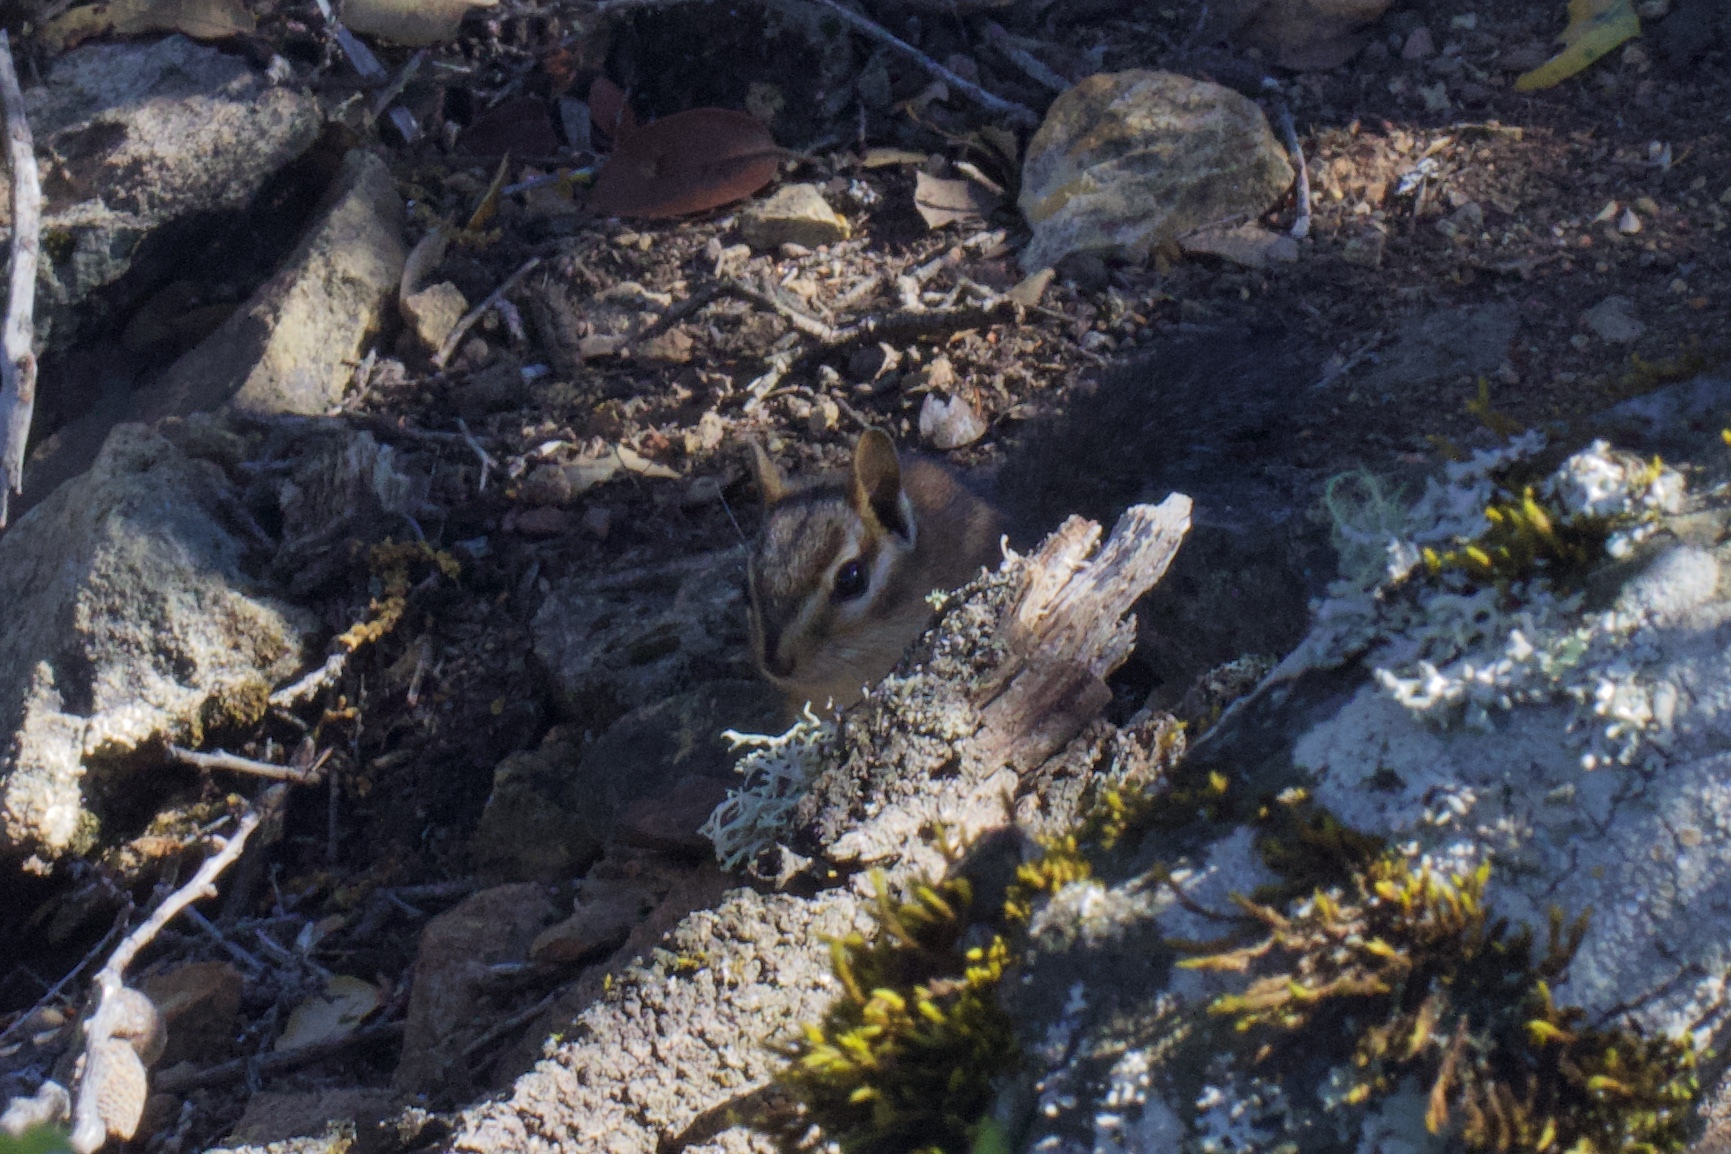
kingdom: Animalia
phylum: Chordata
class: Mammalia
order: Rodentia
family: Sciuridae
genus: Tamias
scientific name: Tamias sonomae
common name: Sonoma chipmunk
